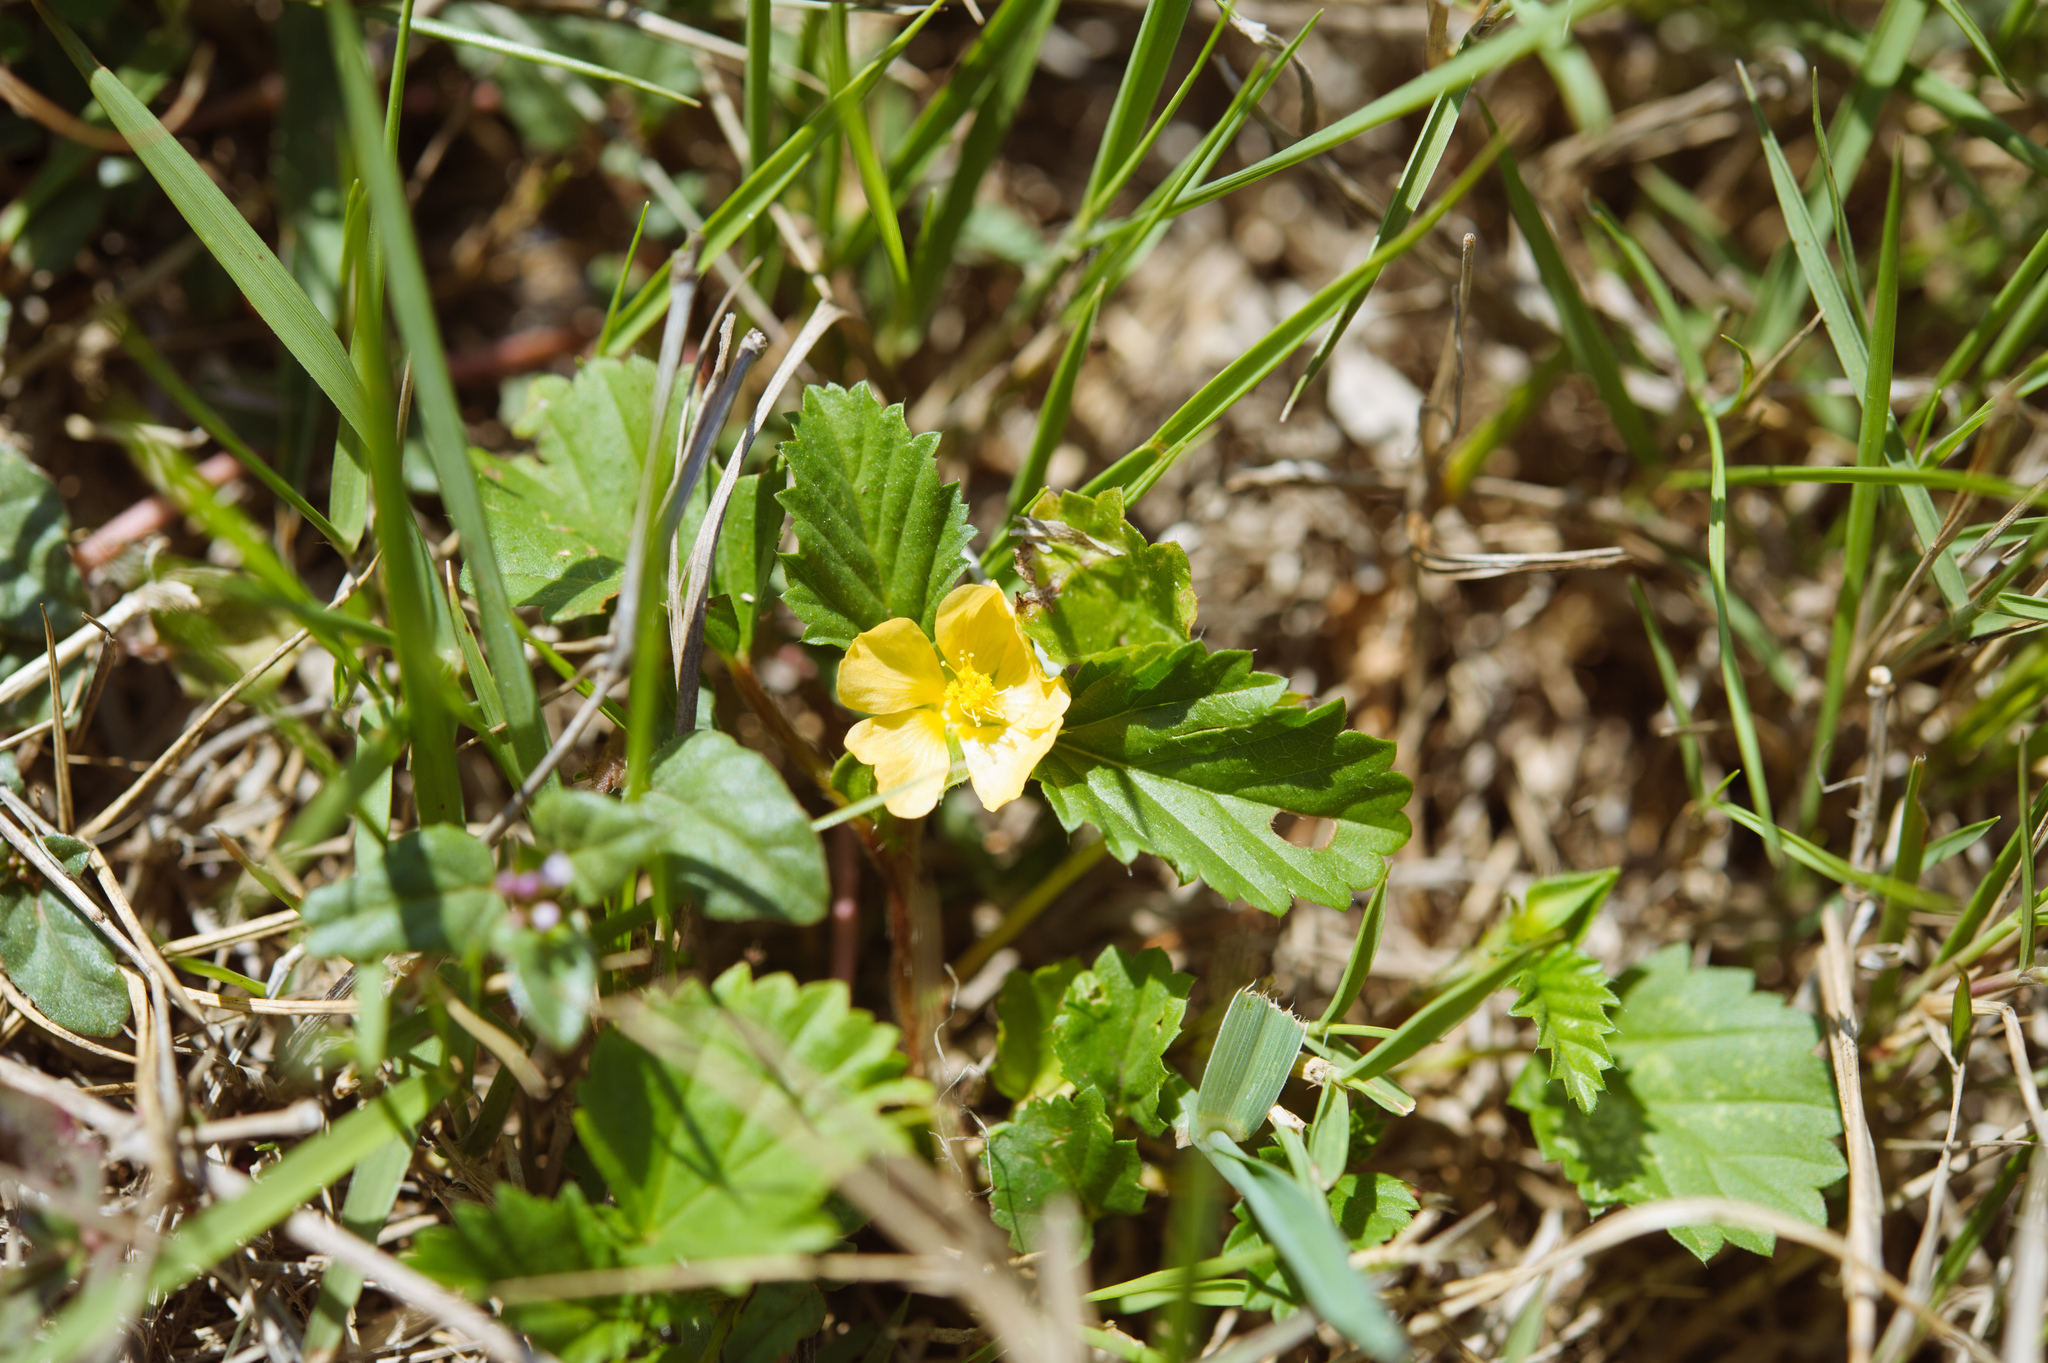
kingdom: Plantae
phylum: Tracheophyta
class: Magnoliopsida
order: Malvales
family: Malvaceae
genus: Malvastrum
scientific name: Malvastrum coromandelianum
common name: Threelobe false mallow
